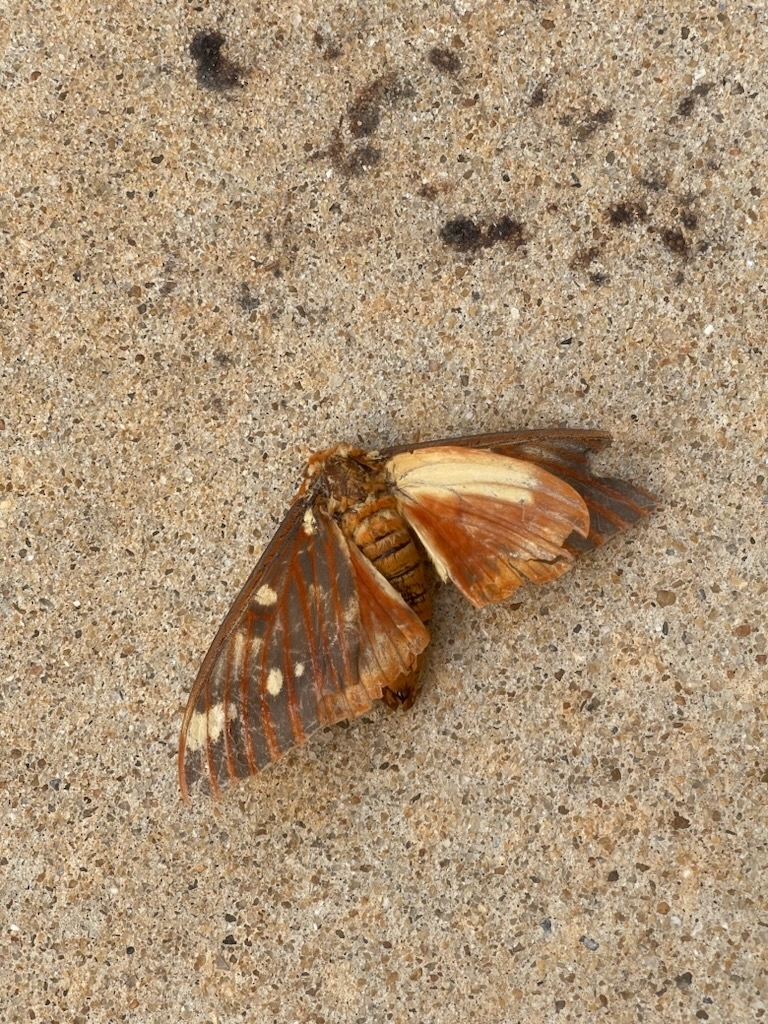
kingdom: Animalia
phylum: Arthropoda
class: Insecta
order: Lepidoptera
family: Saturniidae
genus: Citheronia
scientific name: Citheronia regalis
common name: Hickory horned devil
